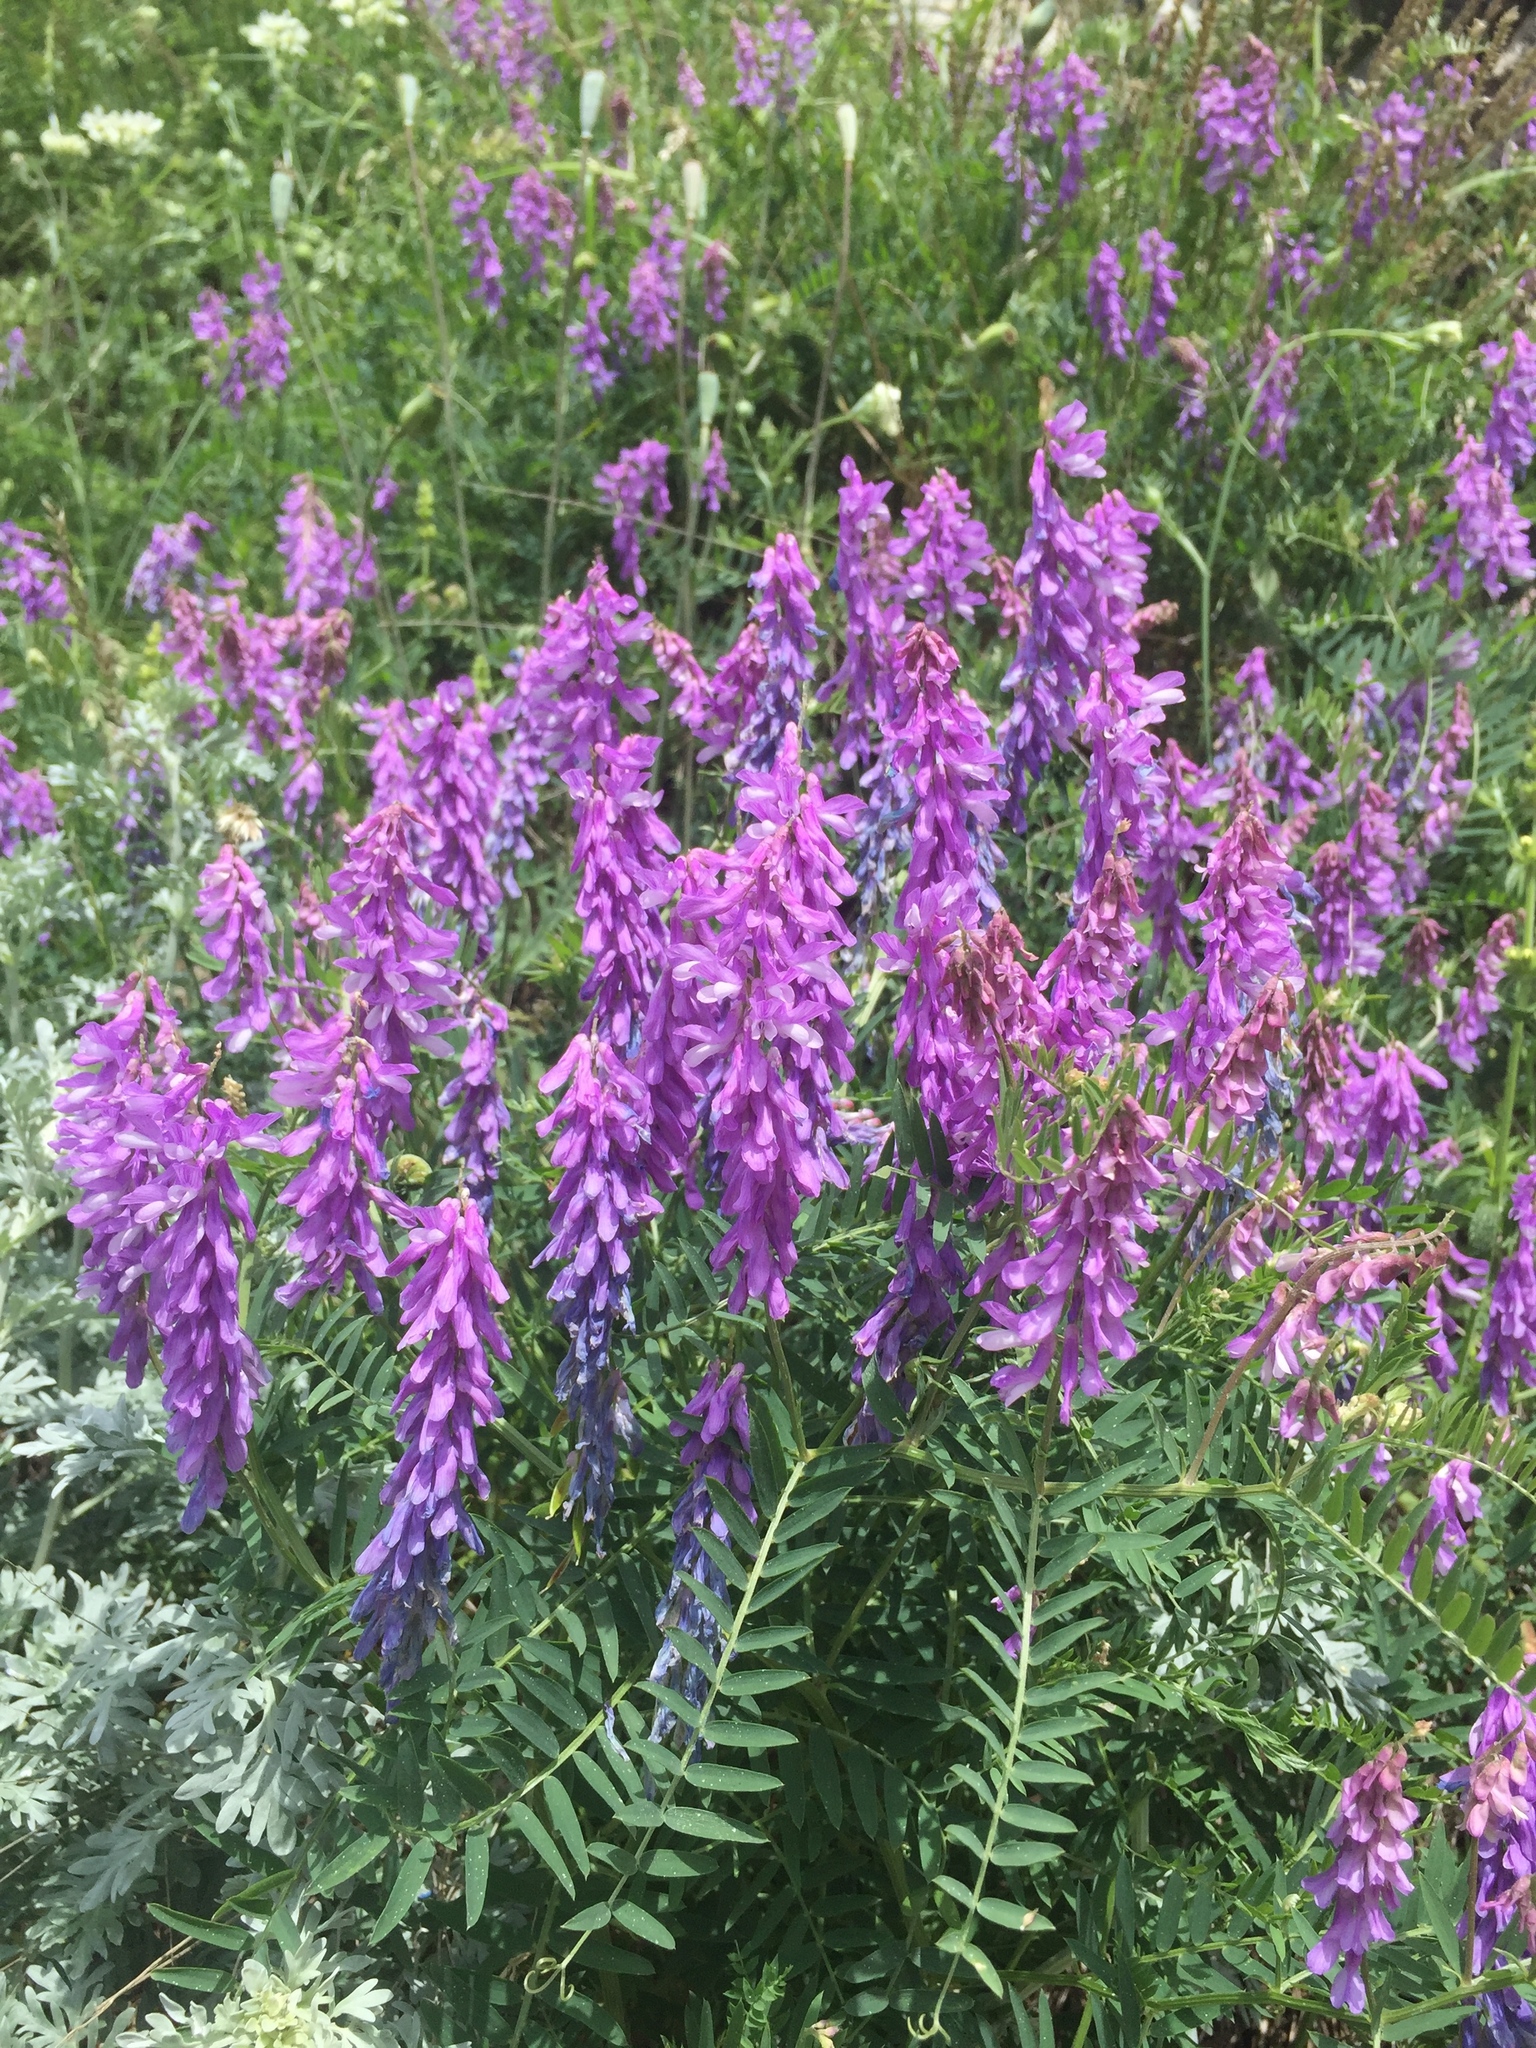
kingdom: Plantae
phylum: Tracheophyta
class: Magnoliopsida
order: Fabales
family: Fabaceae
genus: Vicia
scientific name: Vicia cracca
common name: Bird vetch
